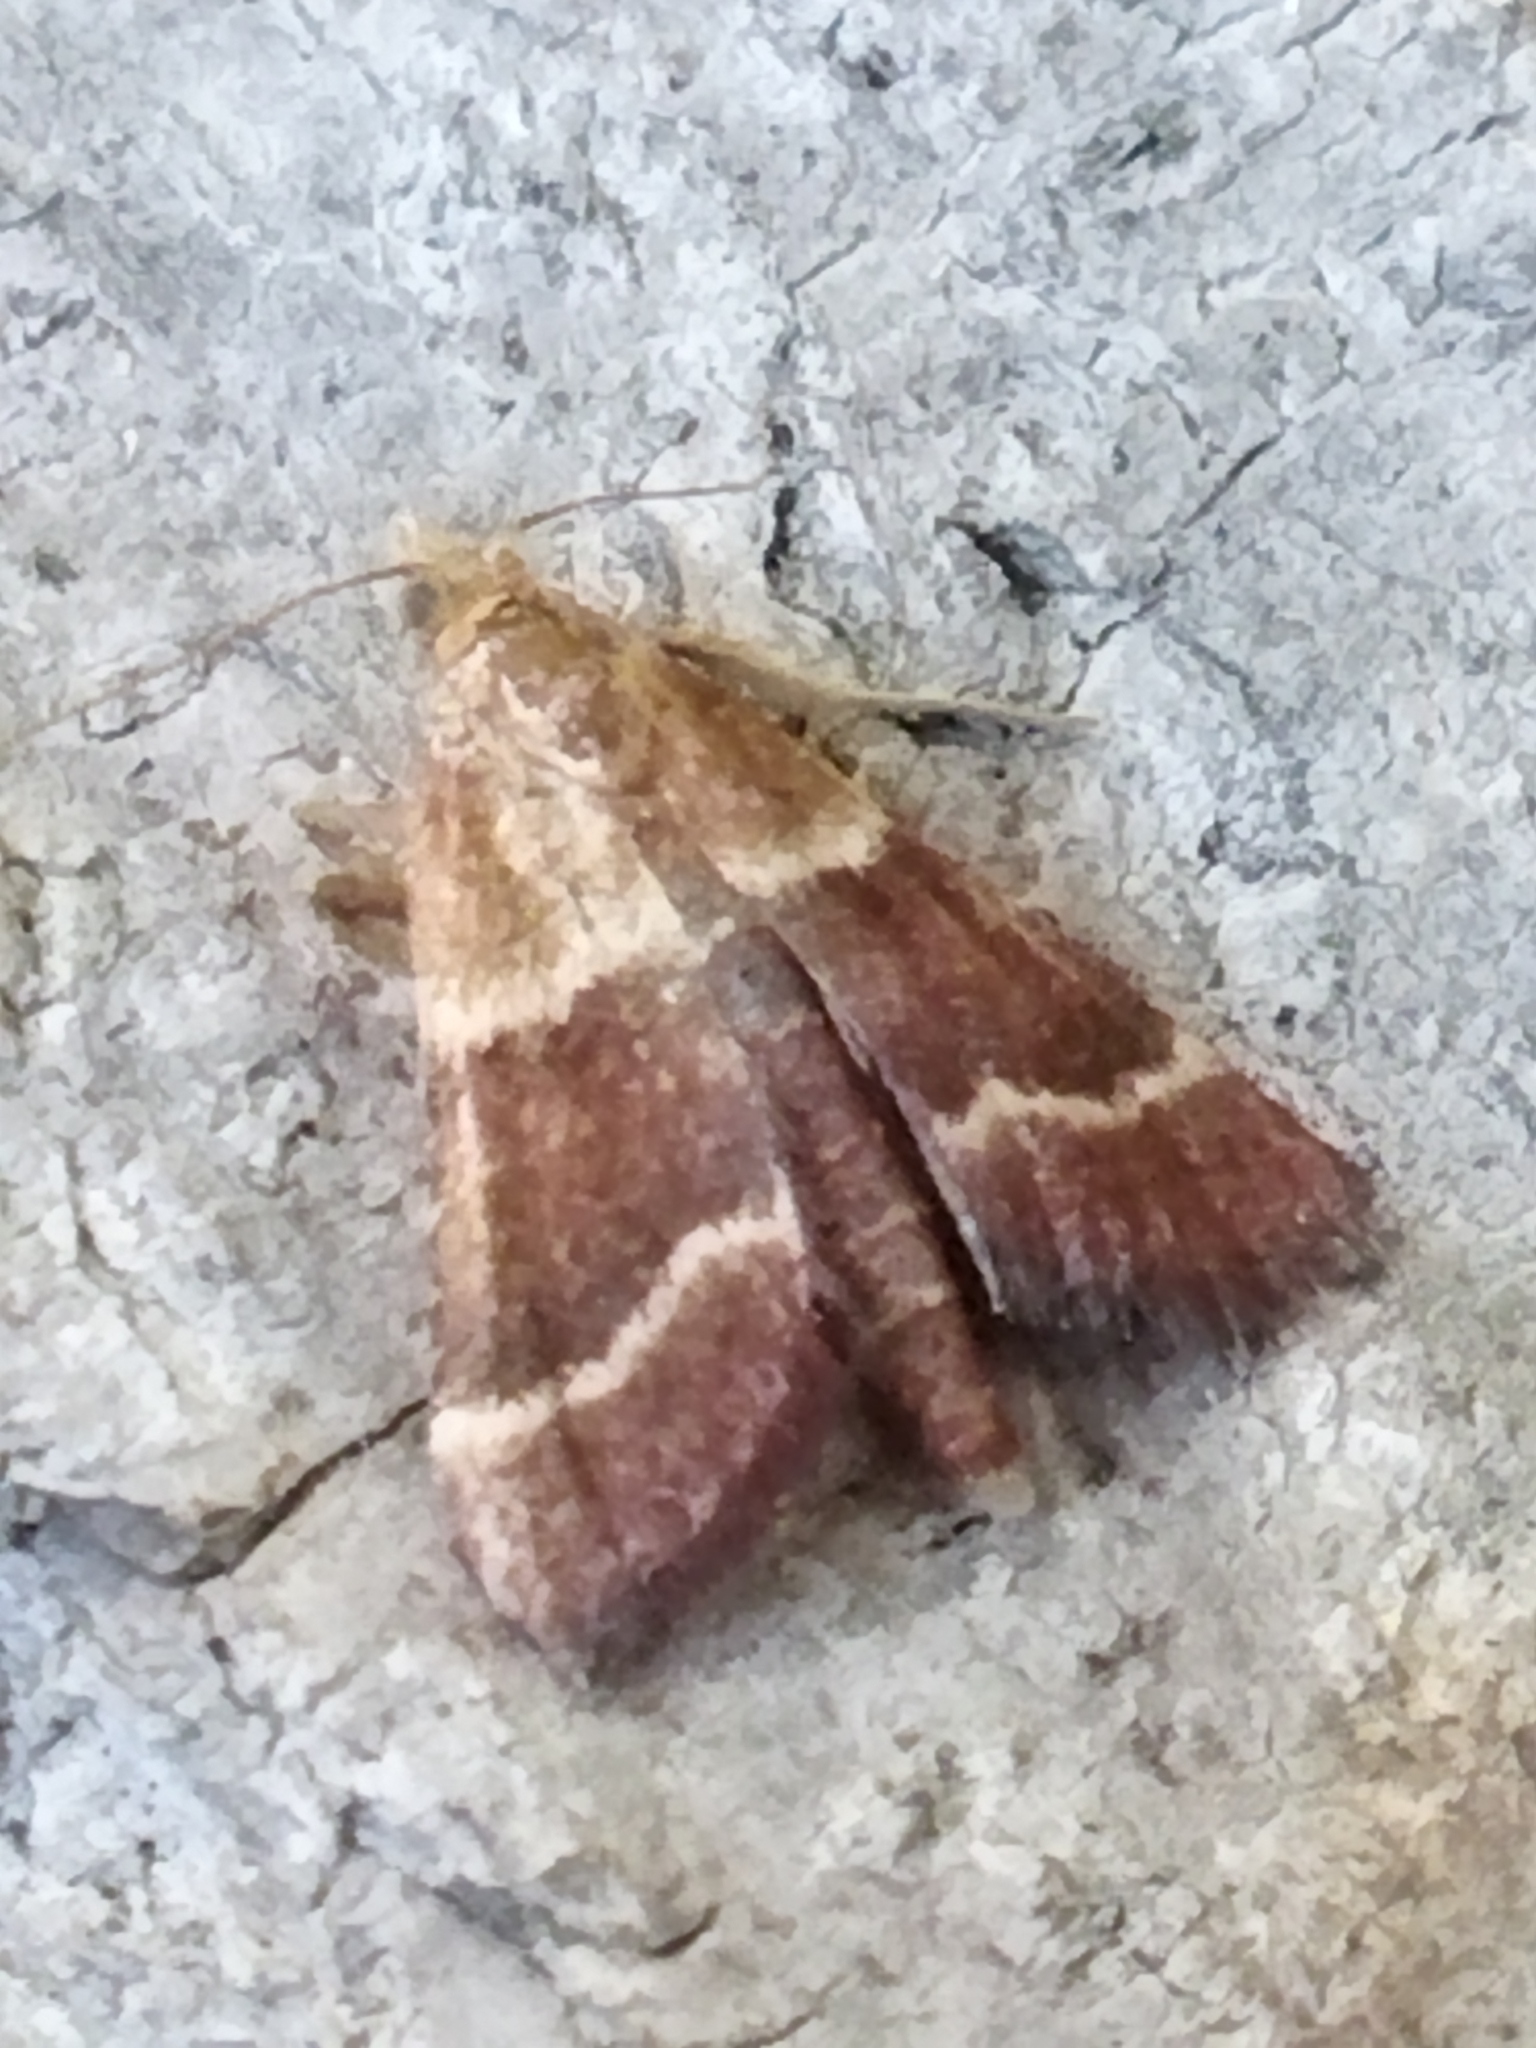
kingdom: Animalia
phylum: Arthropoda
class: Insecta
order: Lepidoptera
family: Pyralidae
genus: Stemmatophora
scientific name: Stemmatophora combustalis
